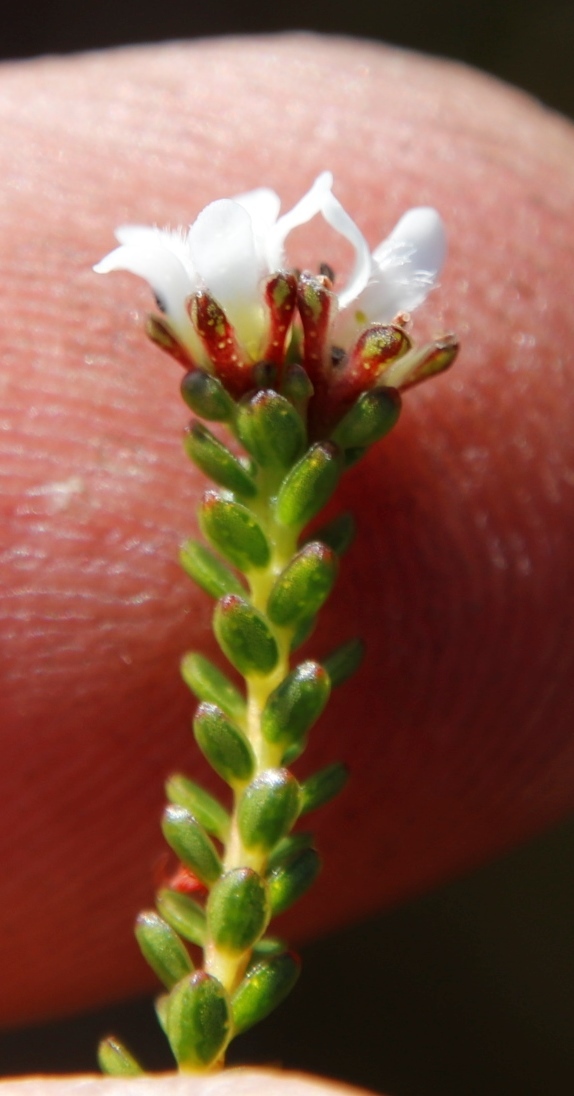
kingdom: Plantae
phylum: Tracheophyta
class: Magnoliopsida
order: Sapindales
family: Rutaceae
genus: Euchaetis
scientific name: Euchaetis glabra
